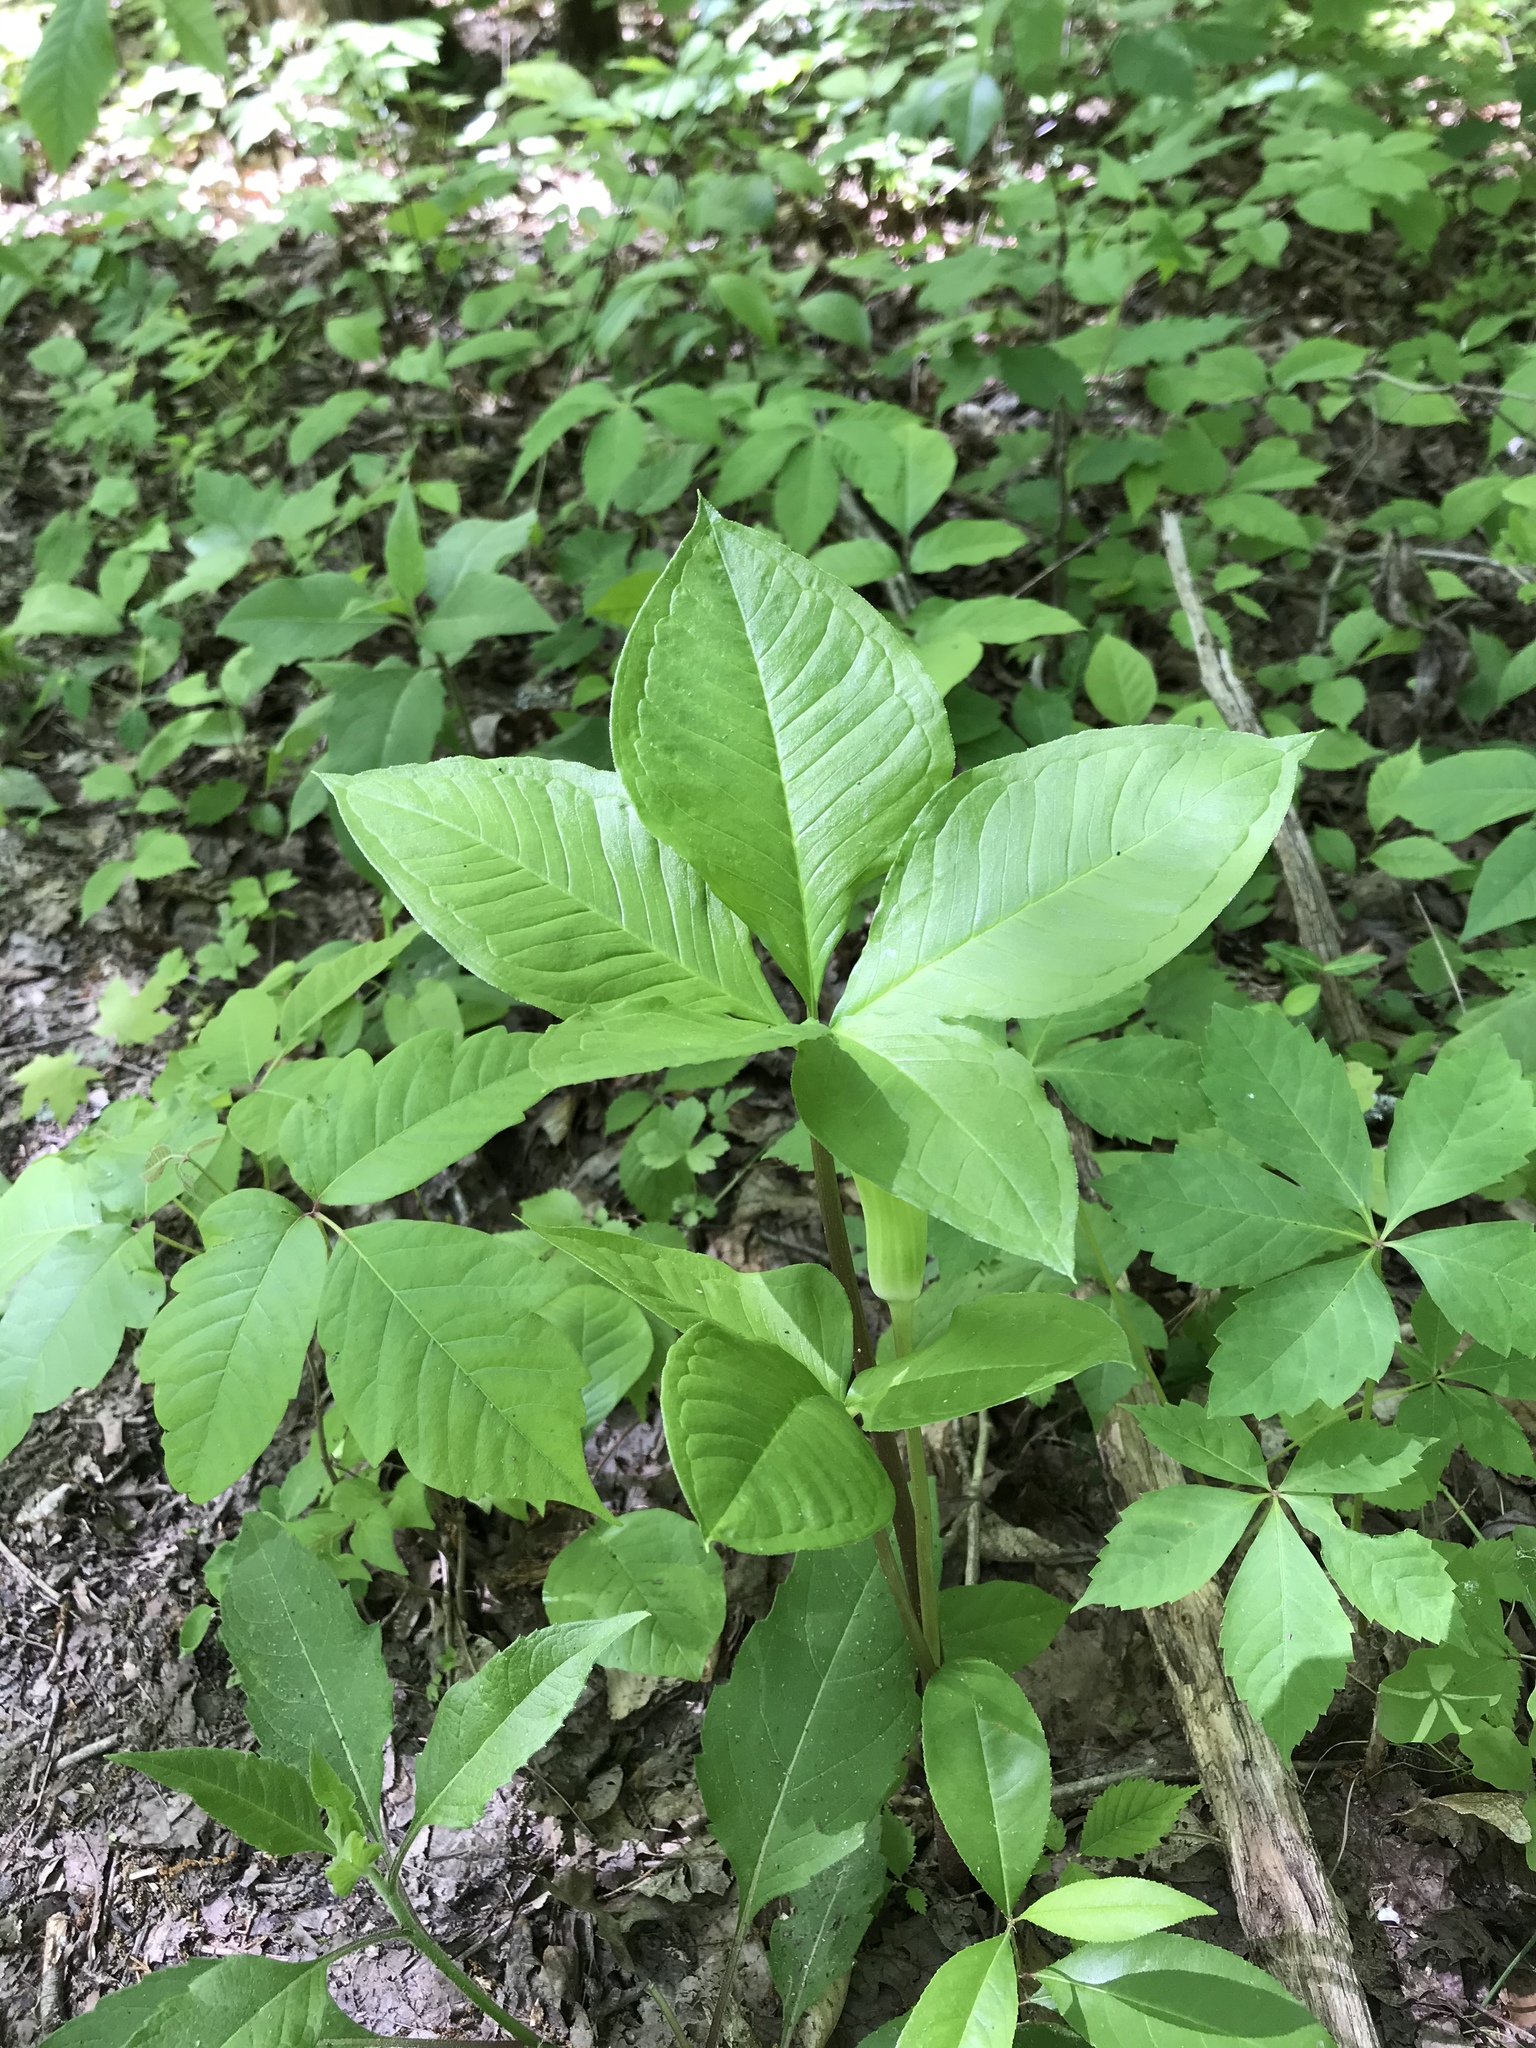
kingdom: Plantae
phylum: Tracheophyta
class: Liliopsida
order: Alismatales
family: Araceae
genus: Arisaema
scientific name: Arisaema quinatum
